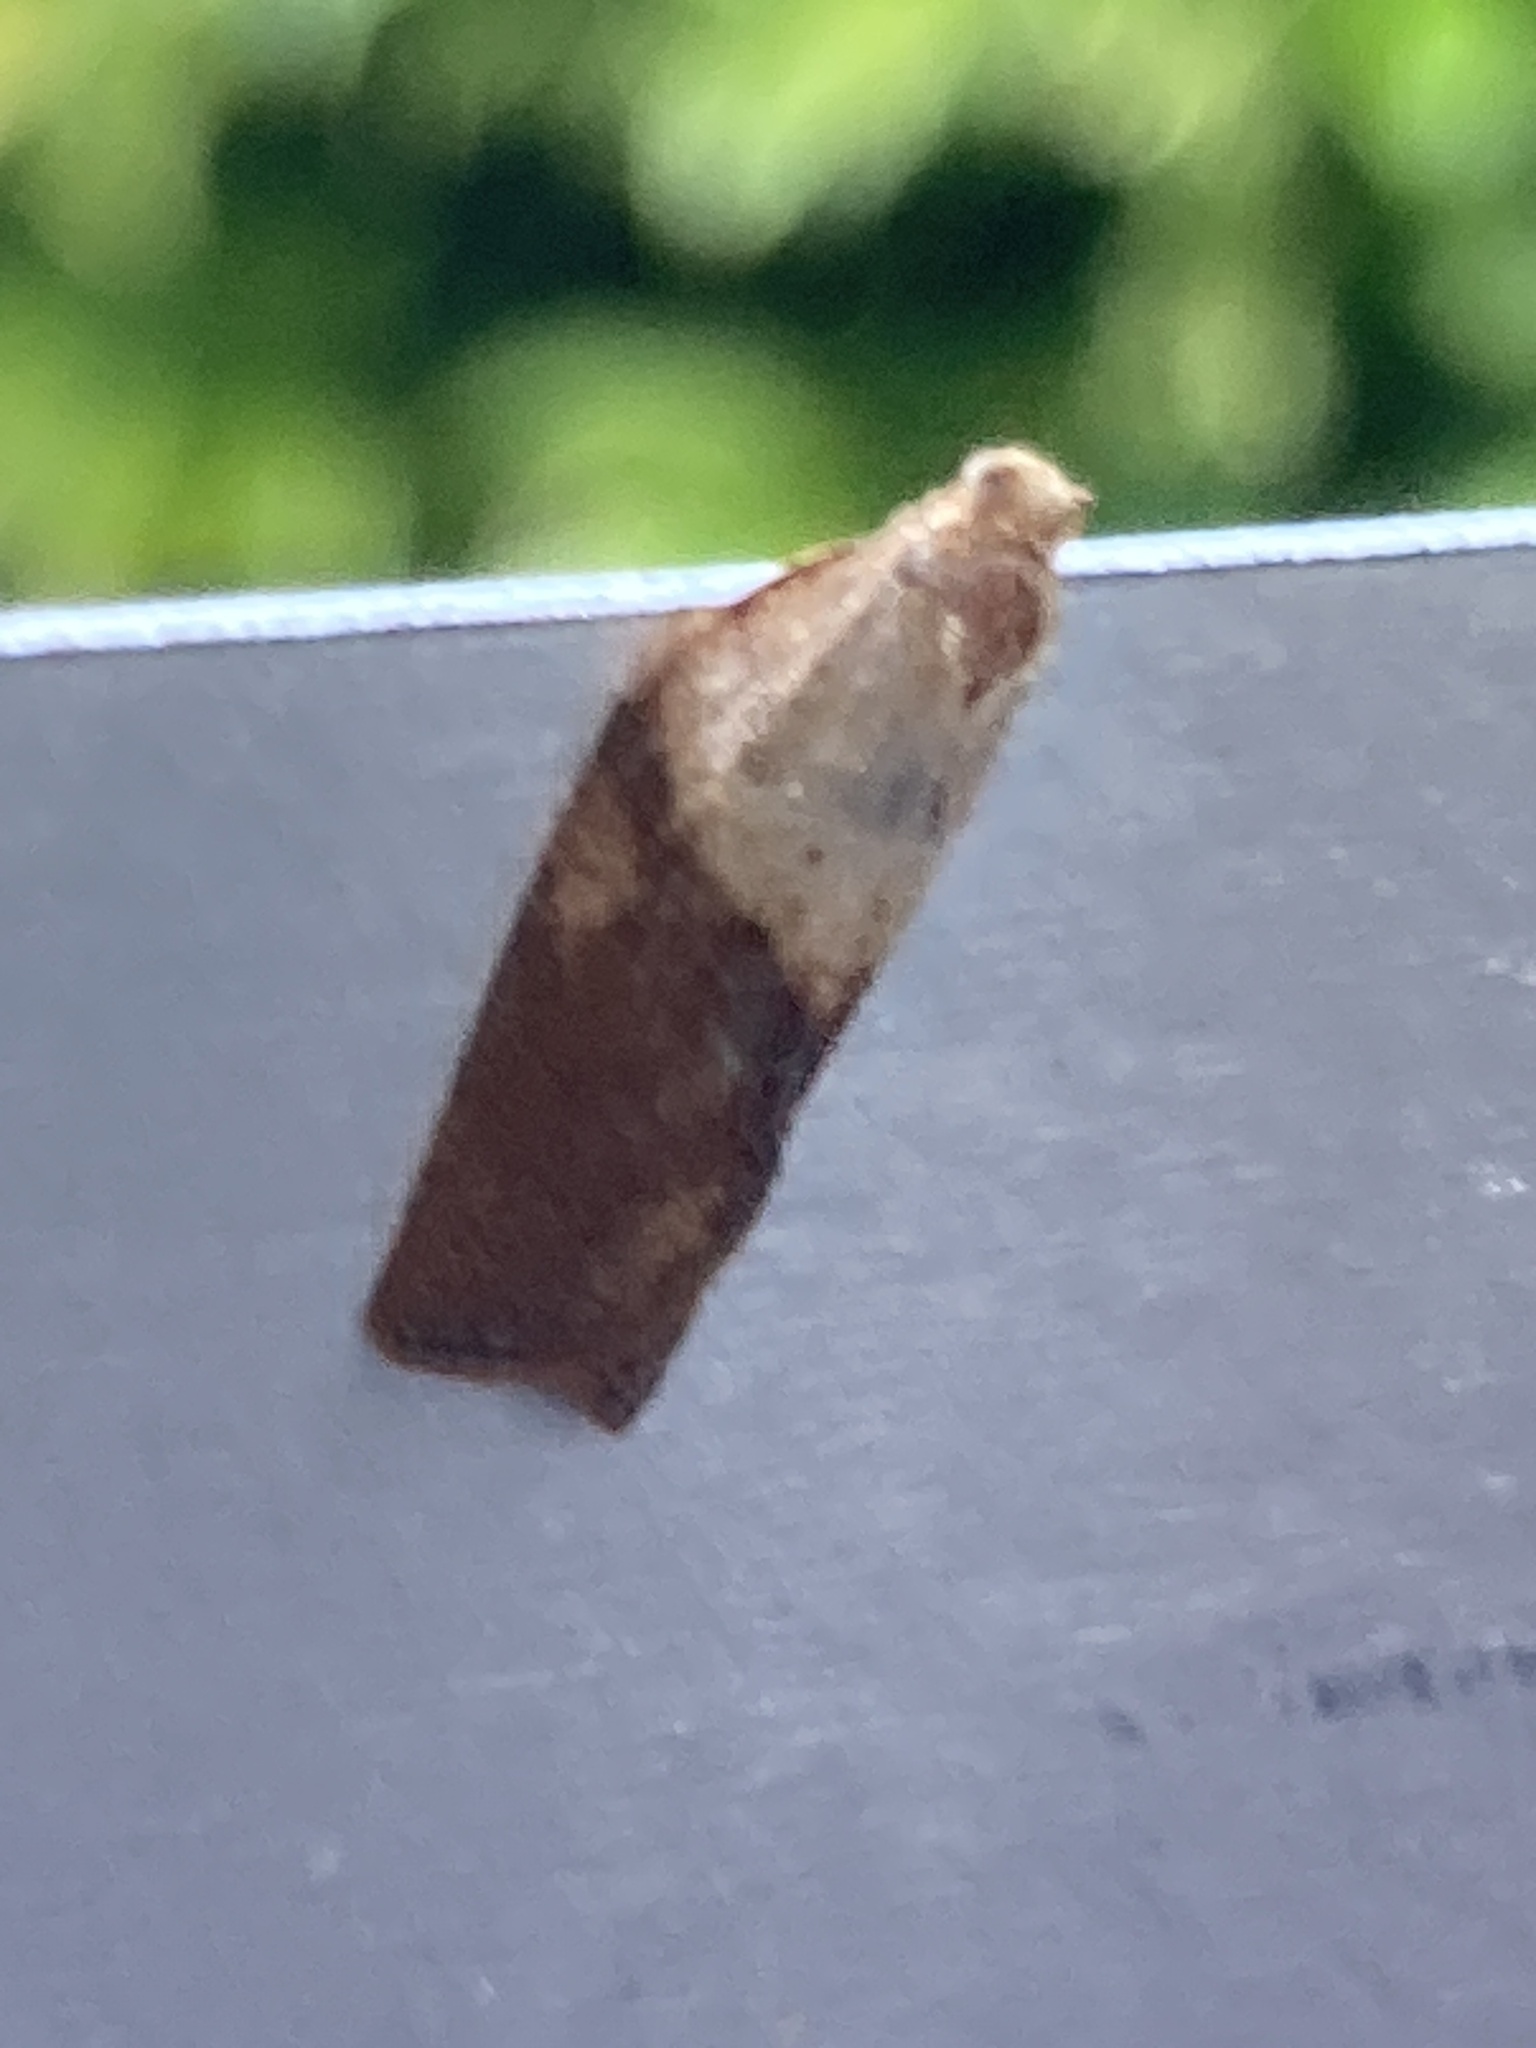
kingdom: Animalia
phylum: Arthropoda
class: Insecta
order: Lepidoptera
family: Tortricidae
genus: Epiphyas
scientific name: Epiphyas postvittana
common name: Light brown apple moth
